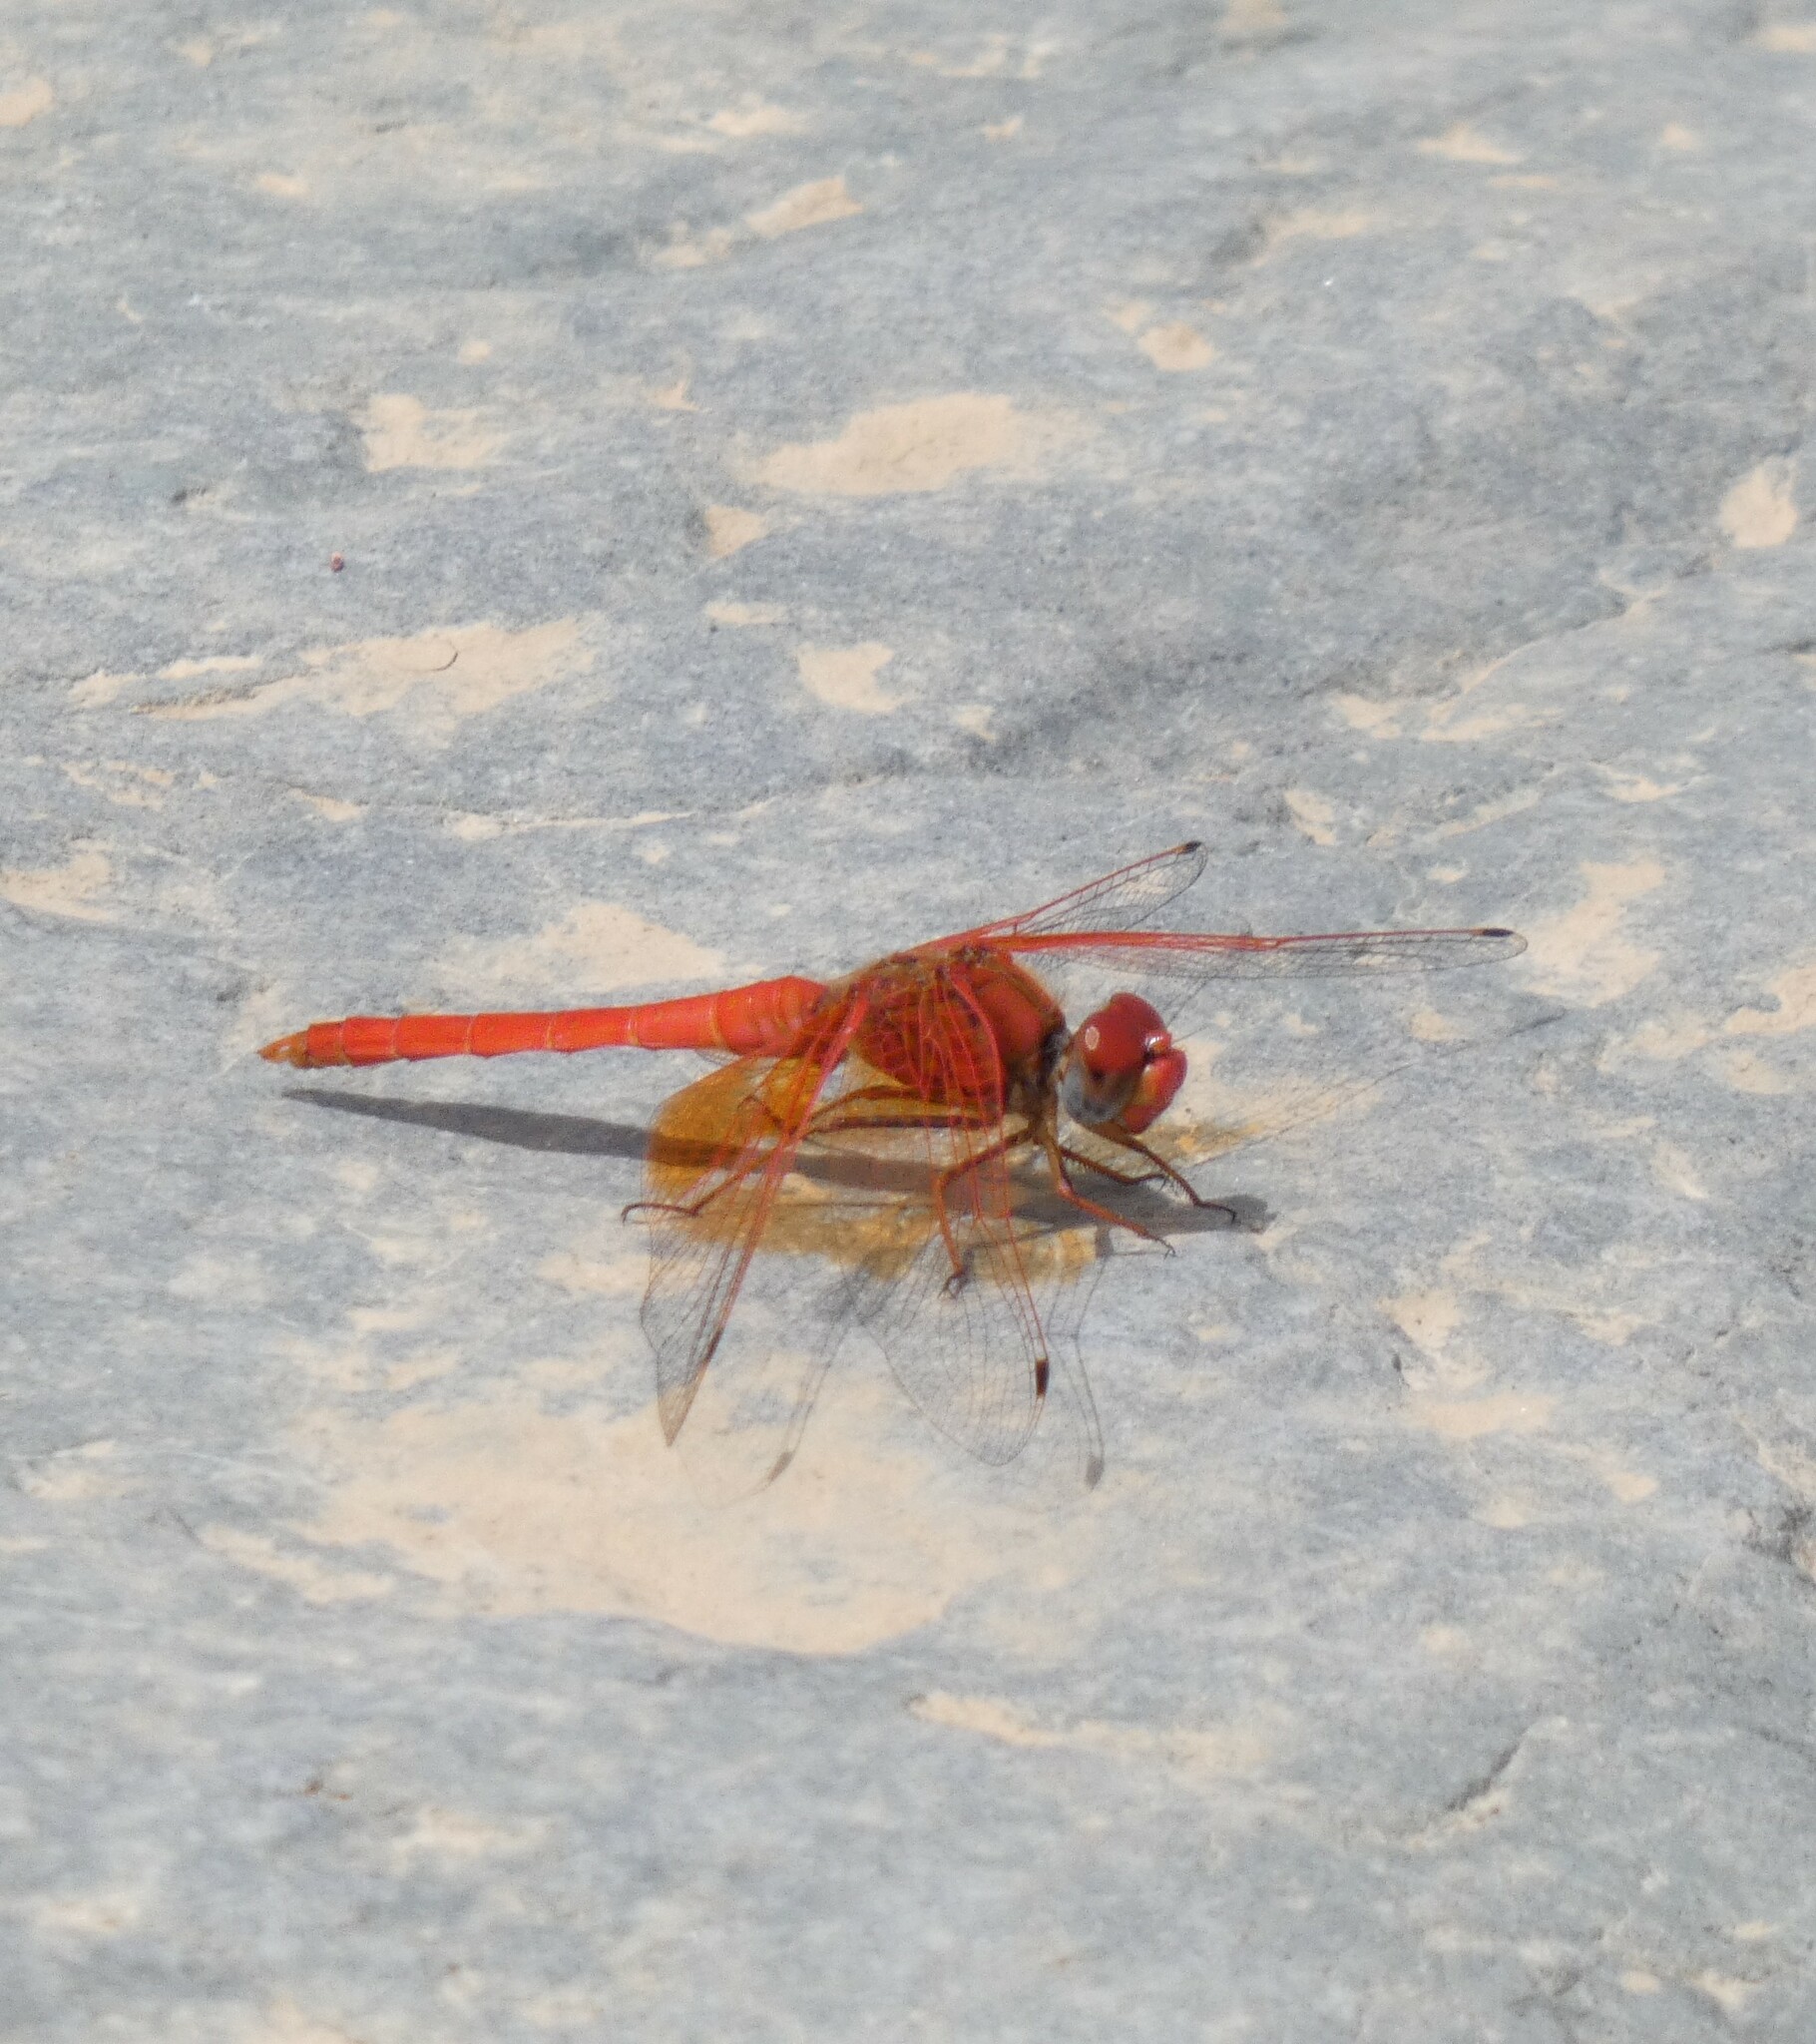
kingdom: Animalia
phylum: Arthropoda
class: Insecta
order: Odonata
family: Libellulidae
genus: Trithemis
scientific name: Trithemis kirbyi
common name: Kirby's dropwing
